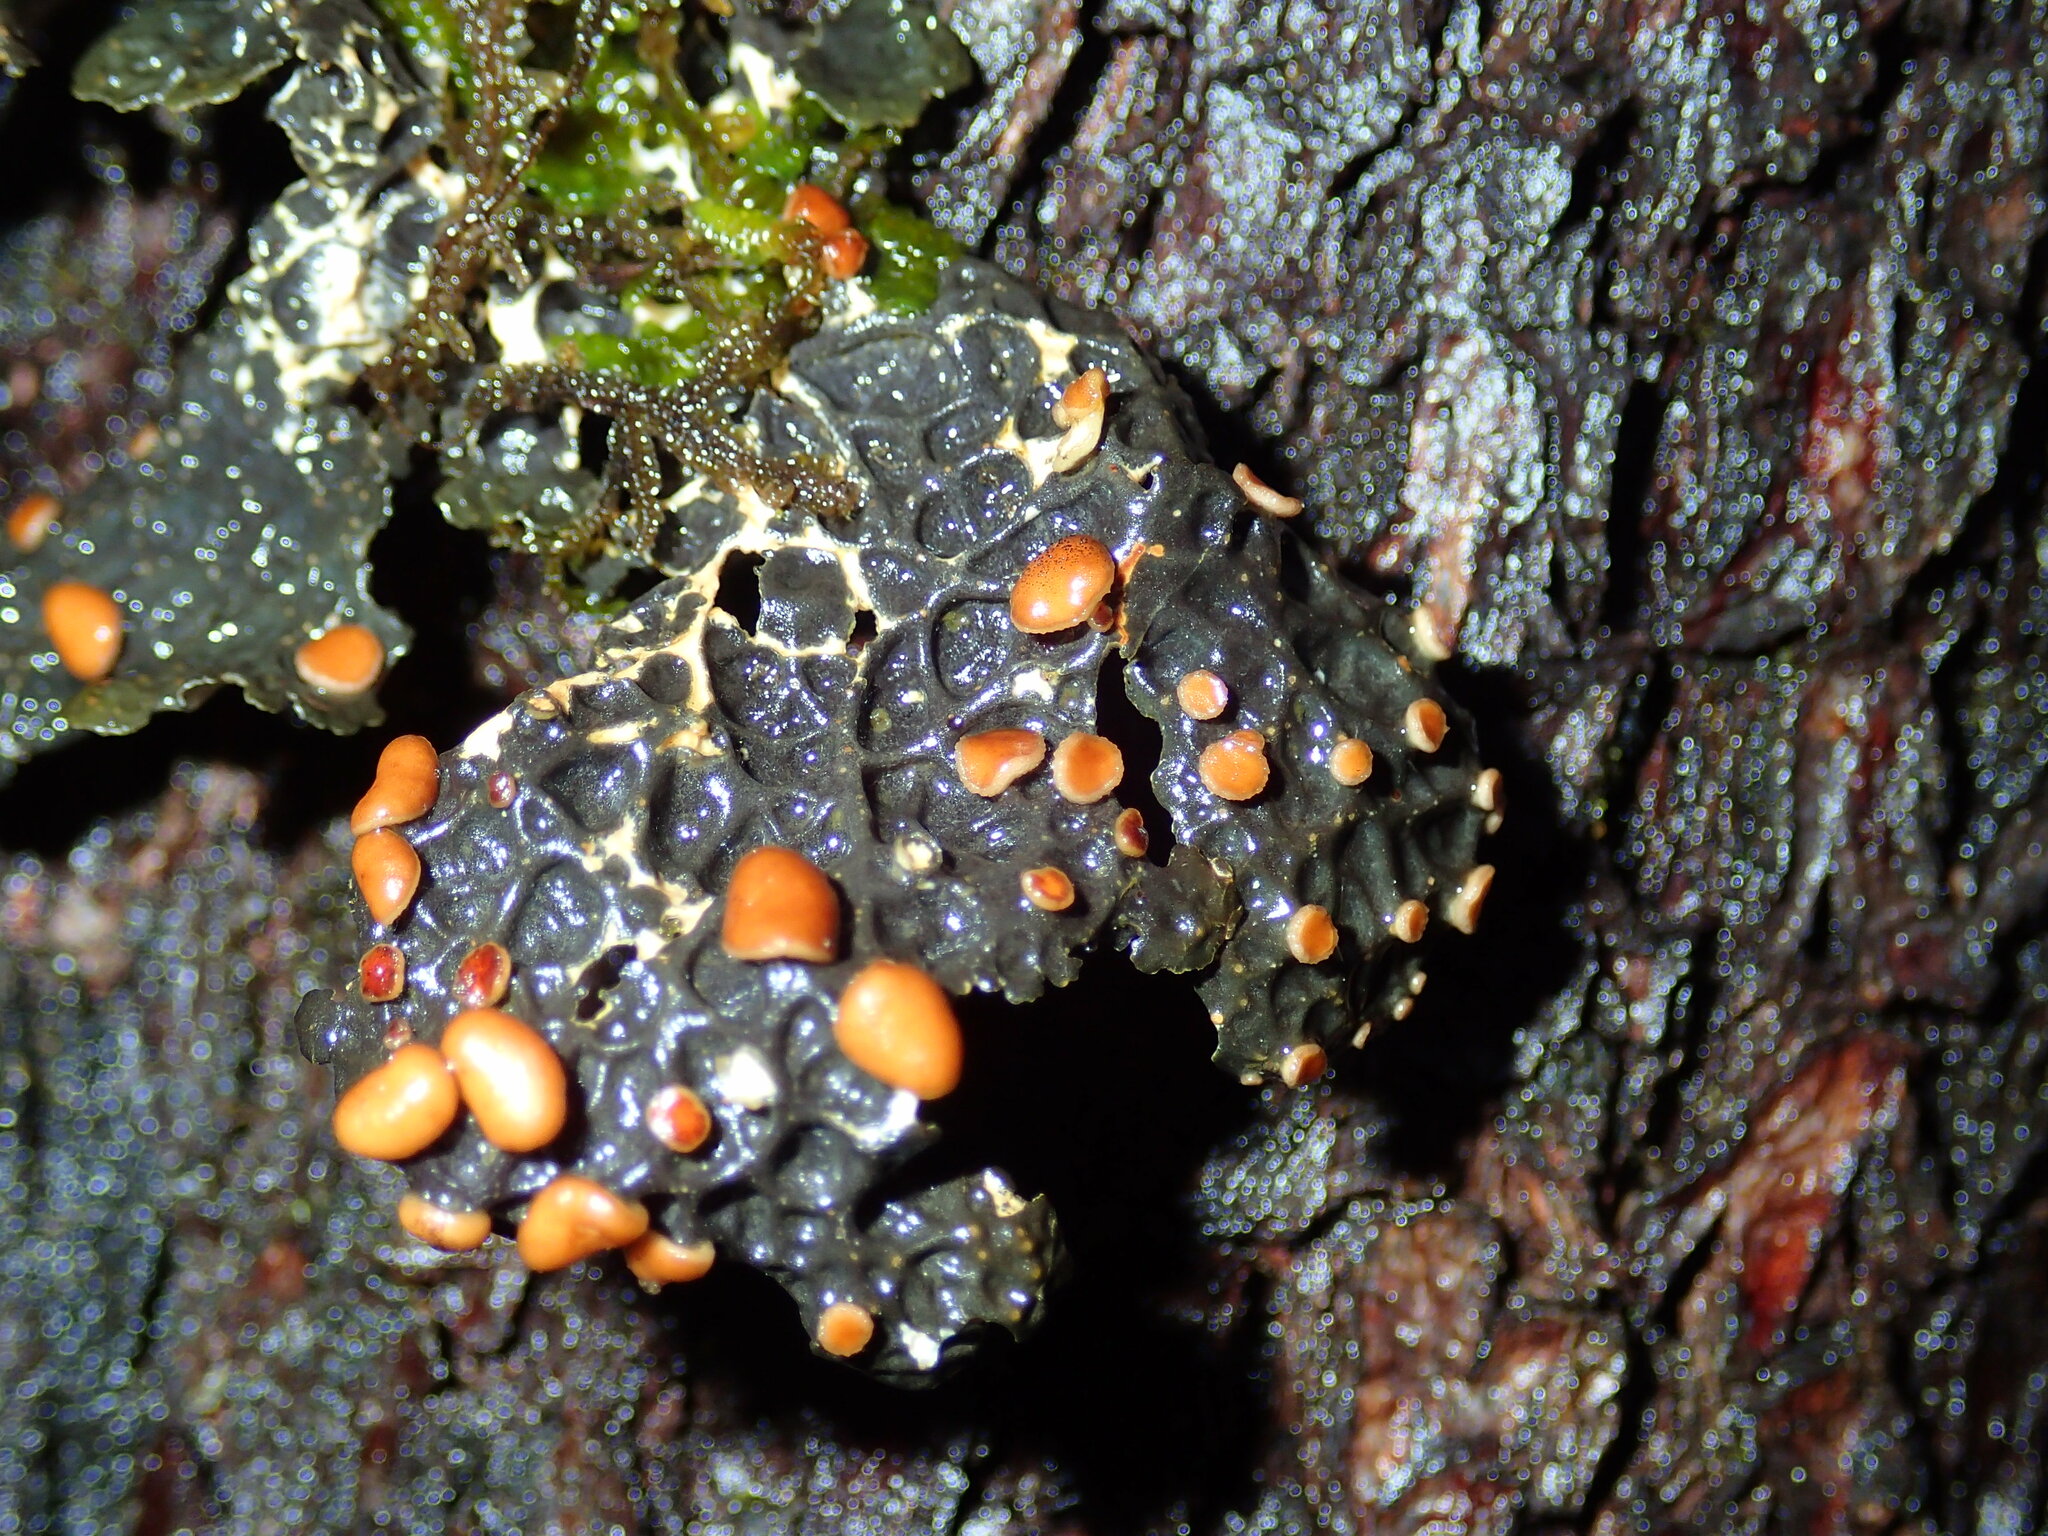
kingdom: Fungi
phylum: Ascomycota
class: Lecanoromycetes
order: Peltigerales
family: Lobariaceae
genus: Lobaria
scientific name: Lobaria anthraspis
